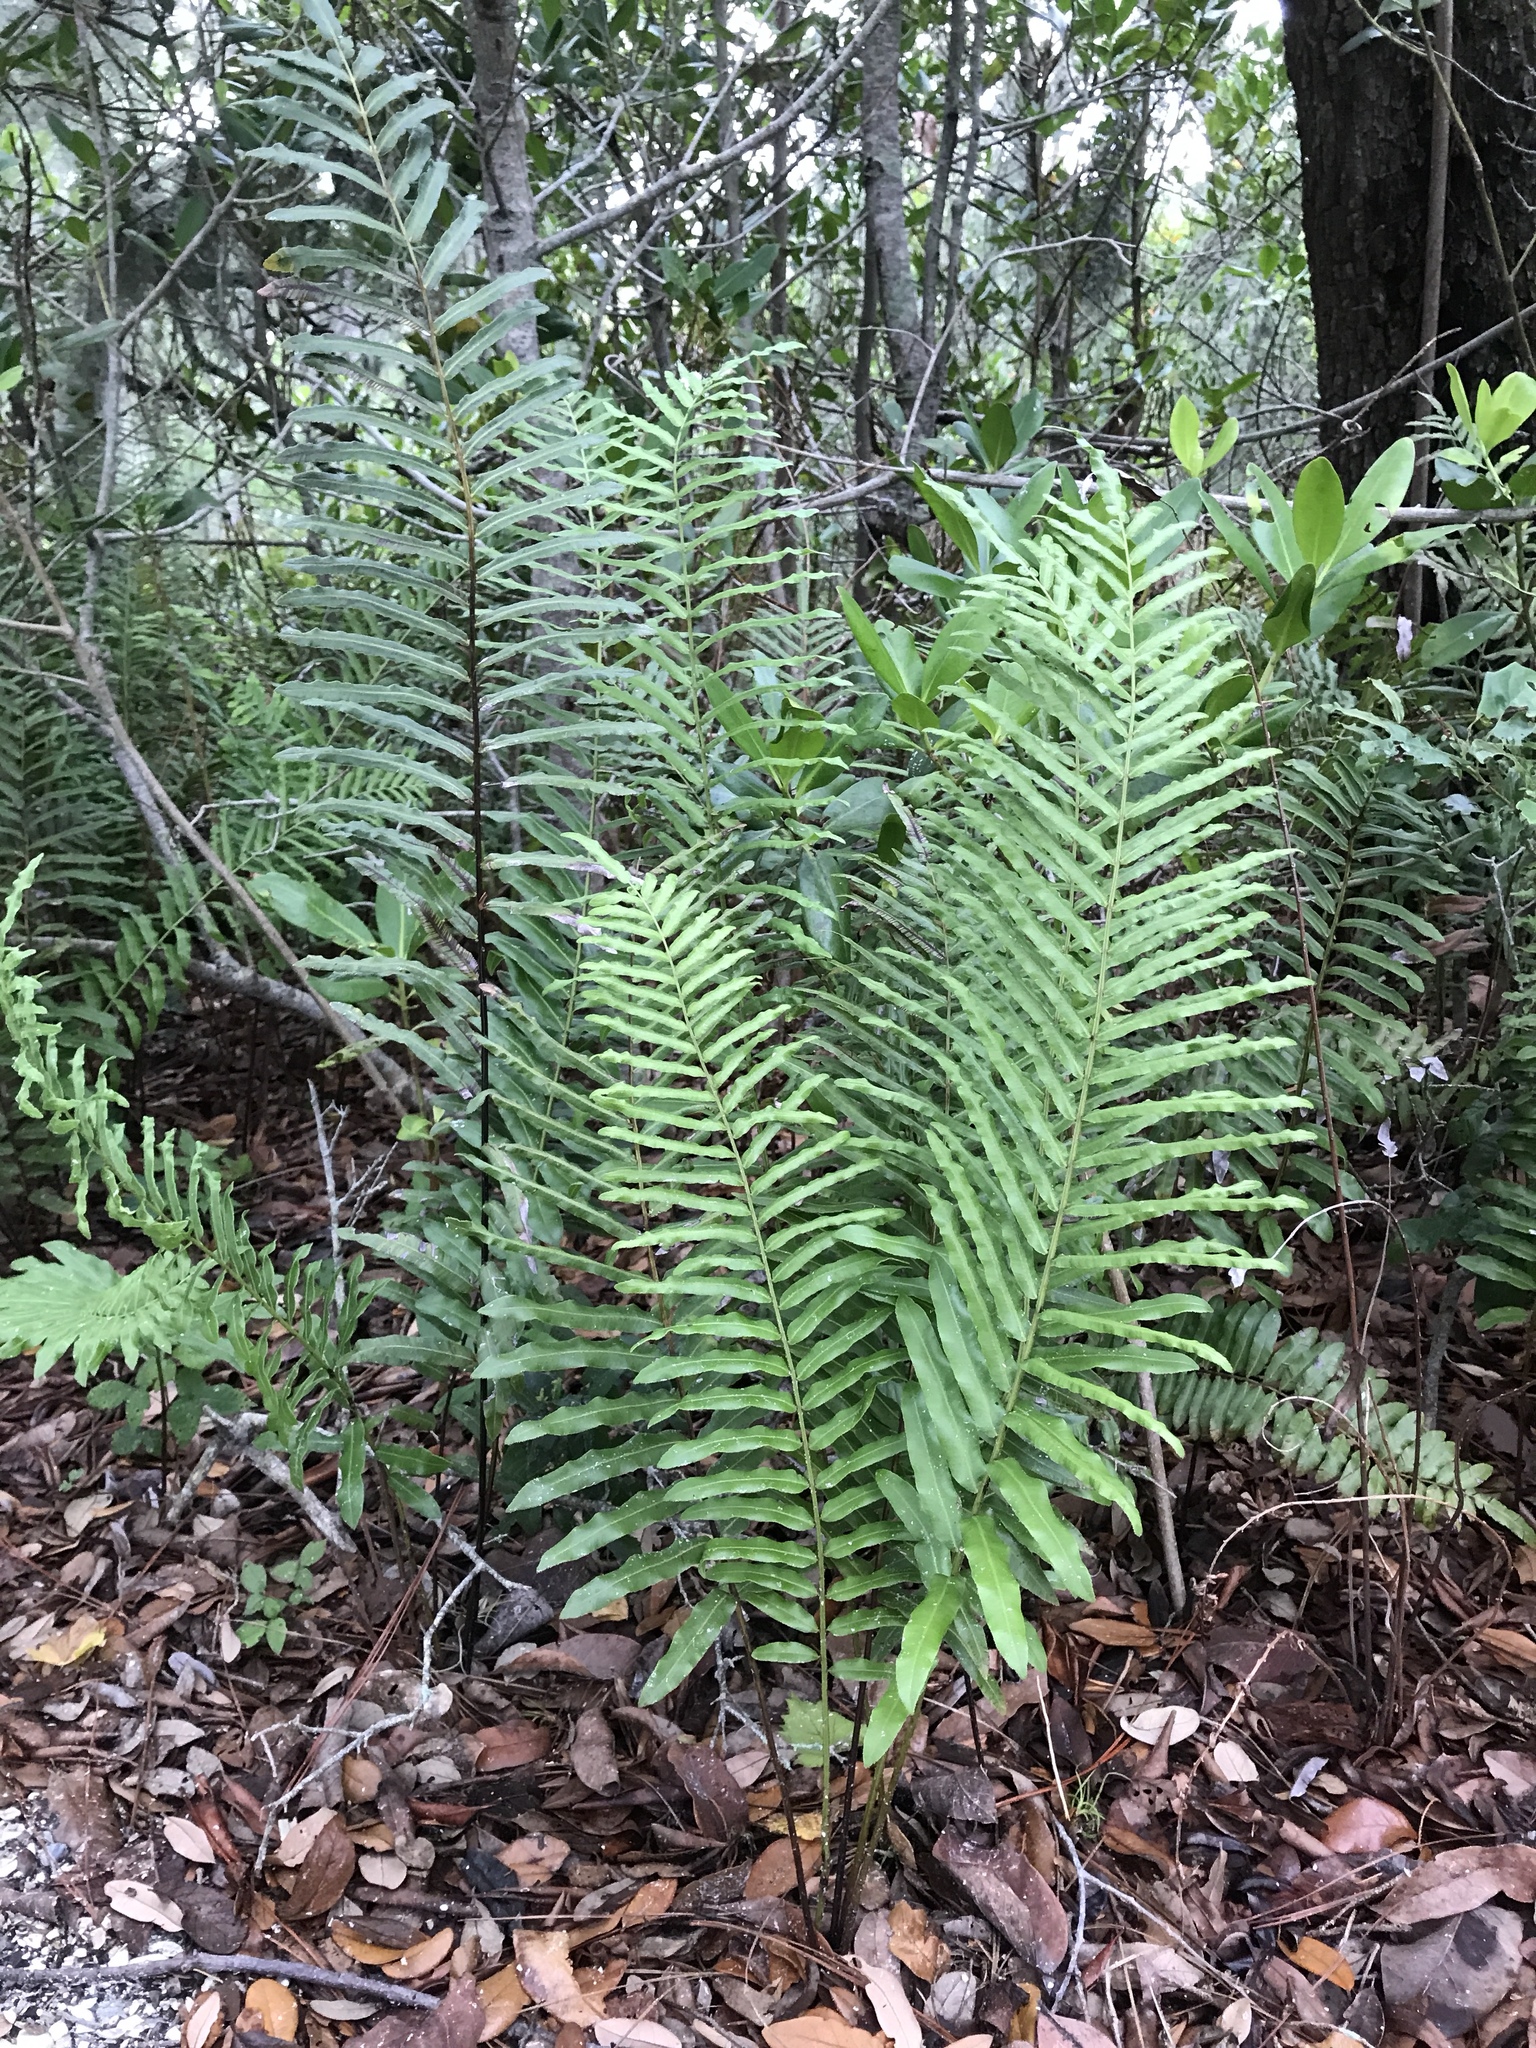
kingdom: Plantae
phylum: Tracheophyta
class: Polypodiopsida
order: Polypodiales
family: Blechnaceae
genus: Telmatoblechnum
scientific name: Telmatoblechnum serrulatum
